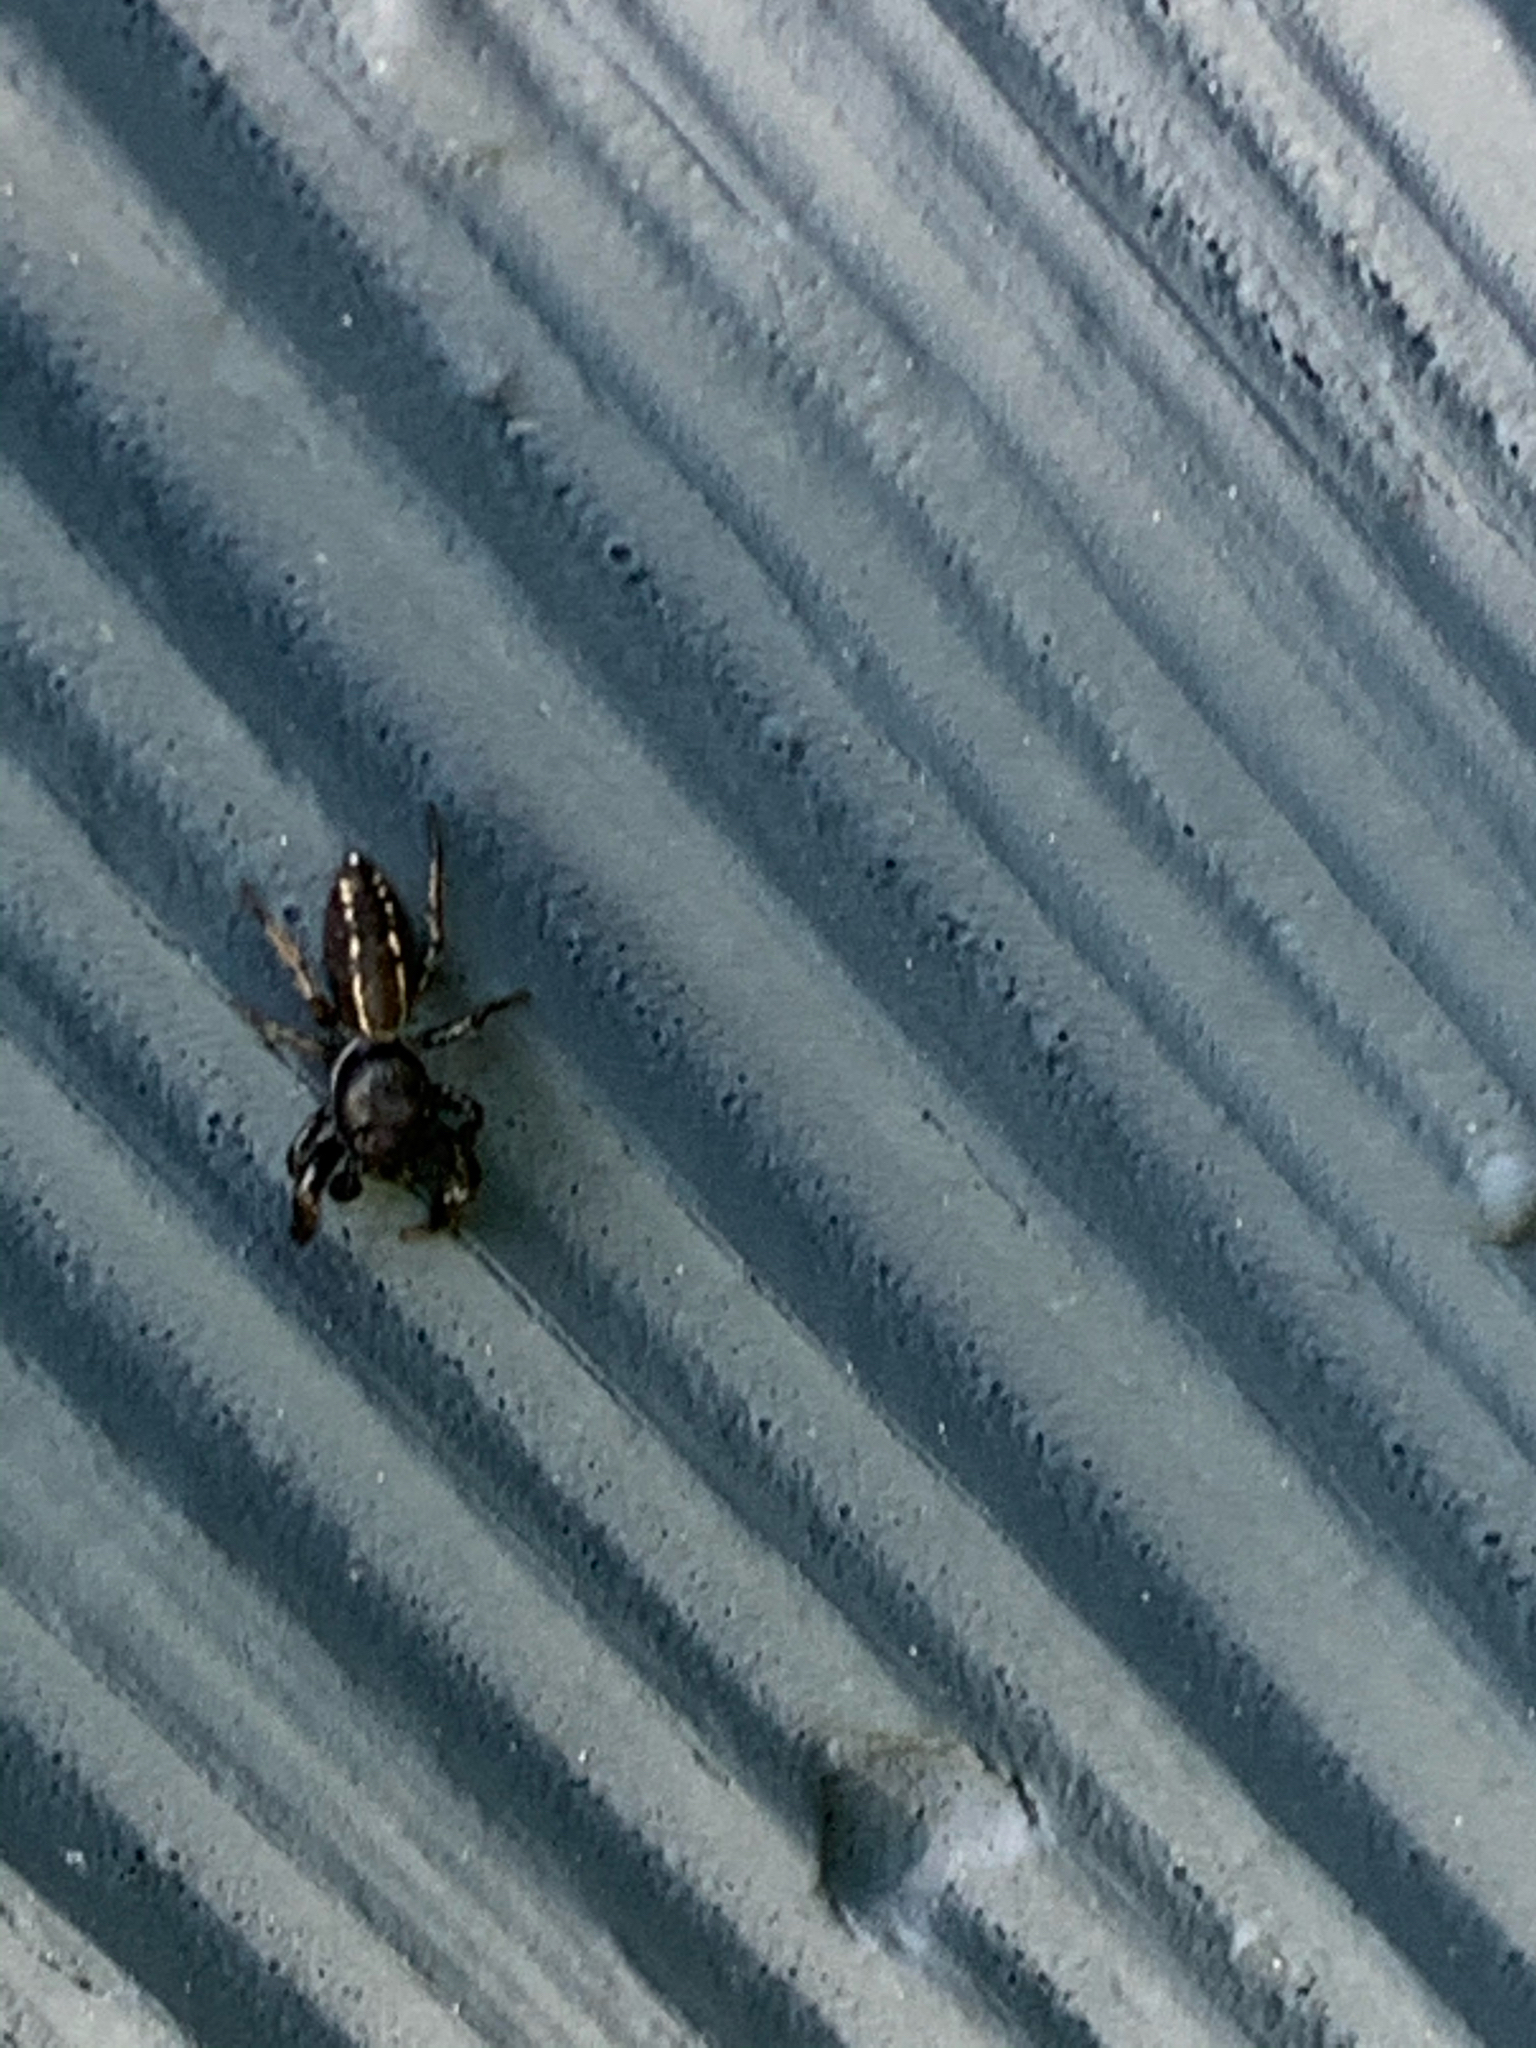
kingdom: Animalia
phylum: Arthropoda
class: Arachnida
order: Araneae
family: Salticidae
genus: Metacyrba
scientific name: Metacyrba taeniola
